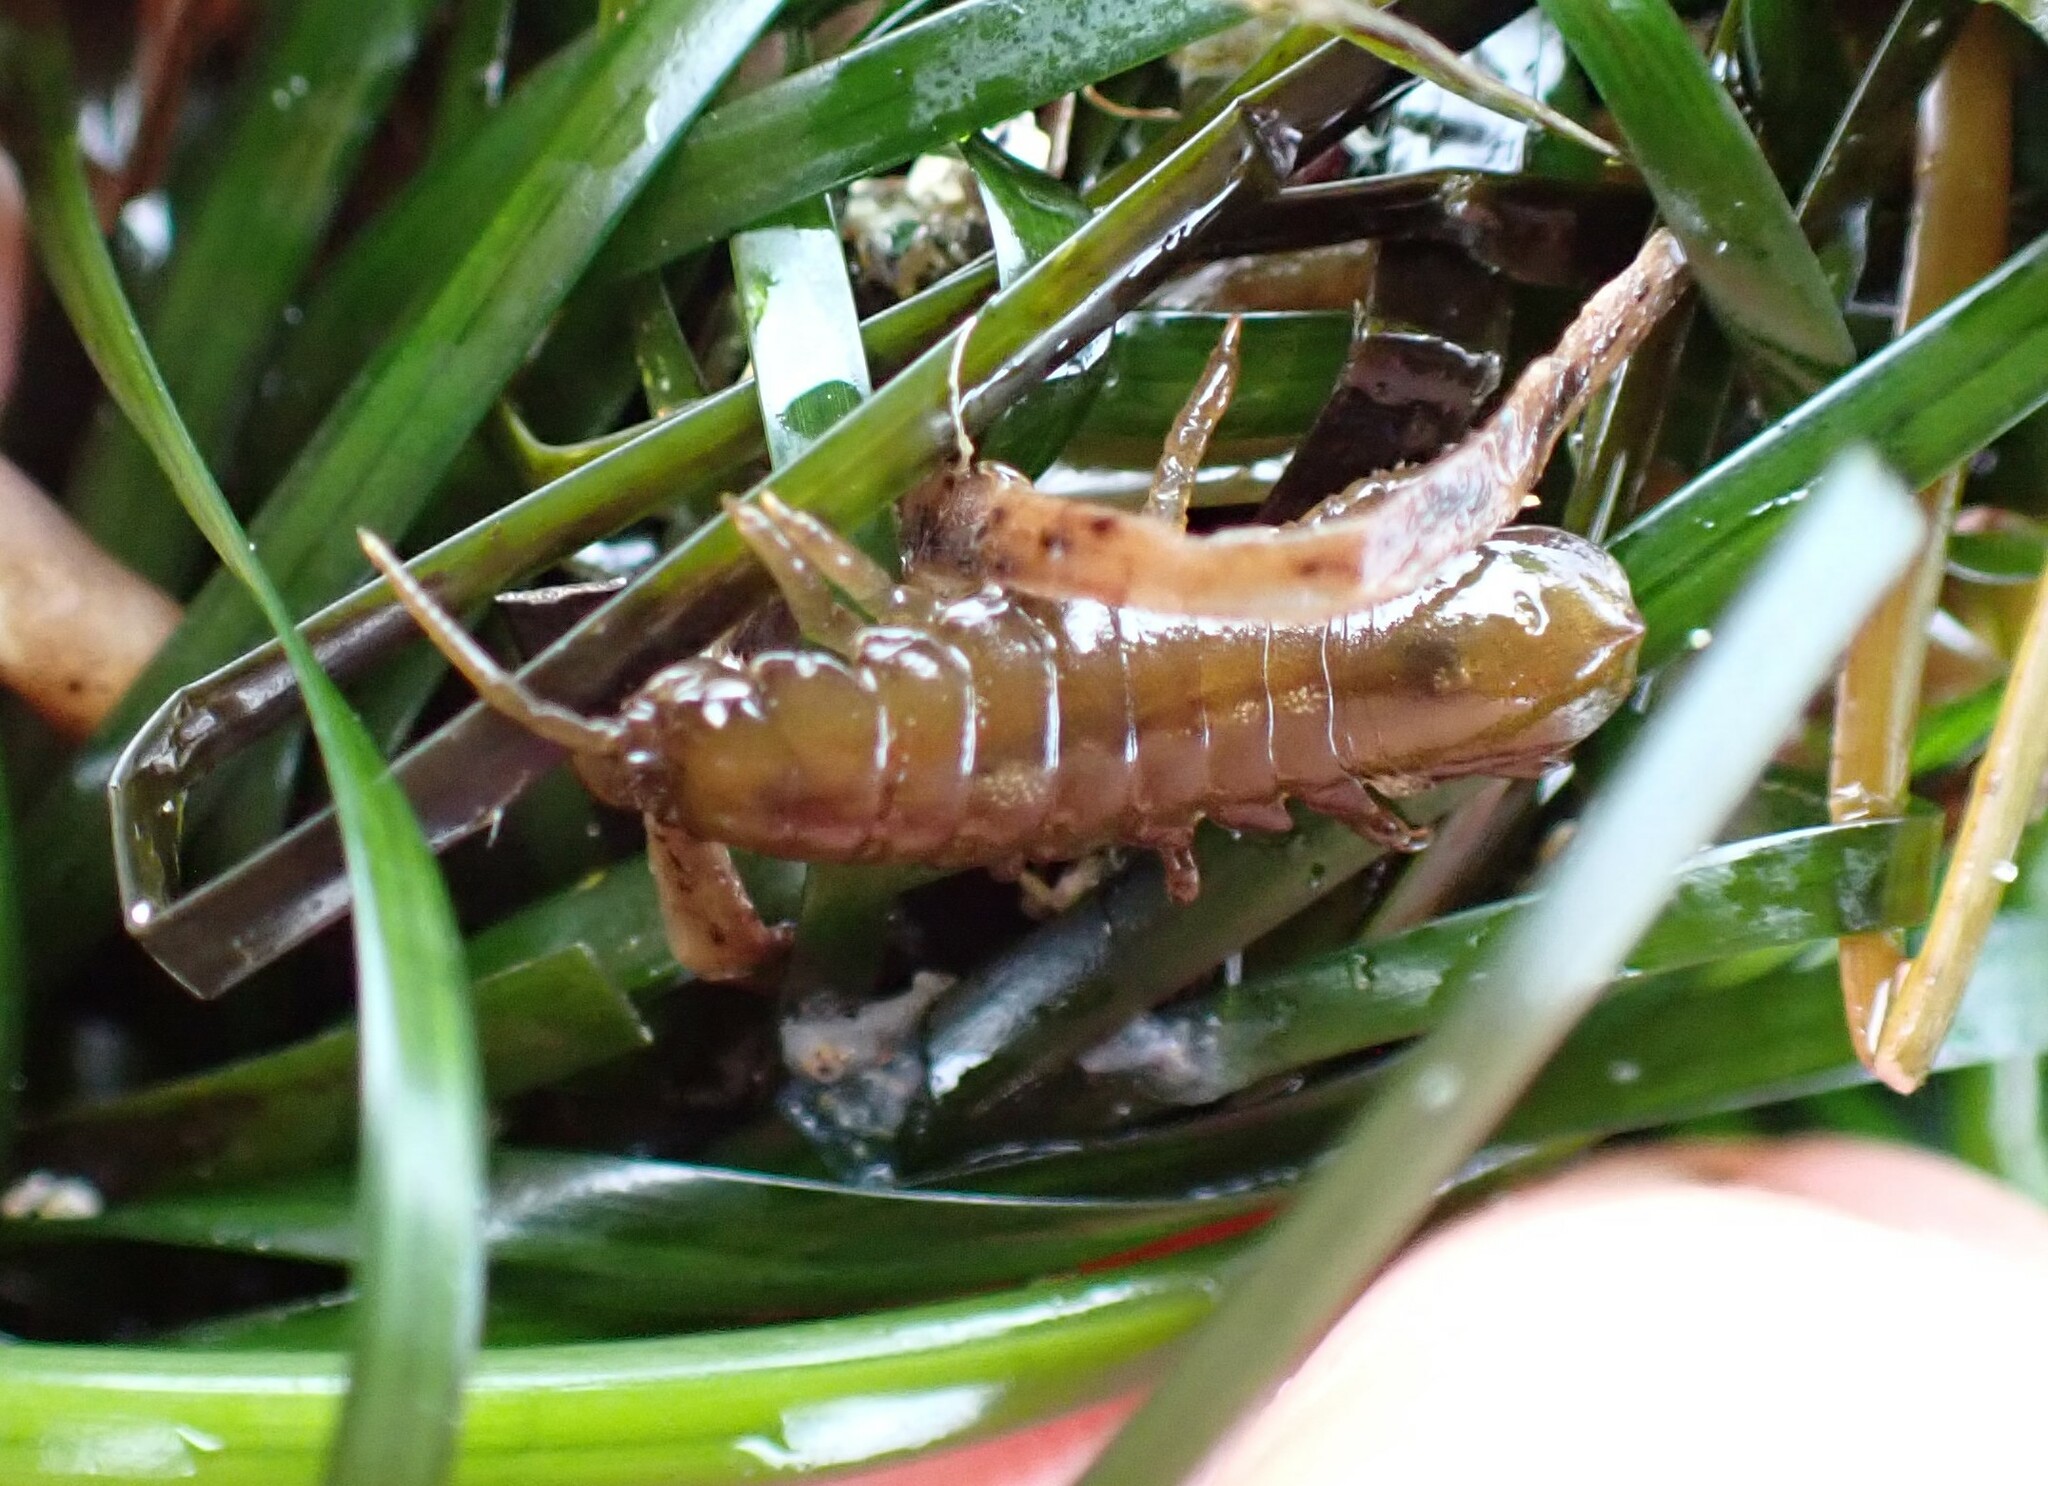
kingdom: Animalia
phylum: Arthropoda
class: Malacostraca
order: Isopoda
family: Idoteidae
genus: Pentidotea
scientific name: Pentidotea wosnesenskii
